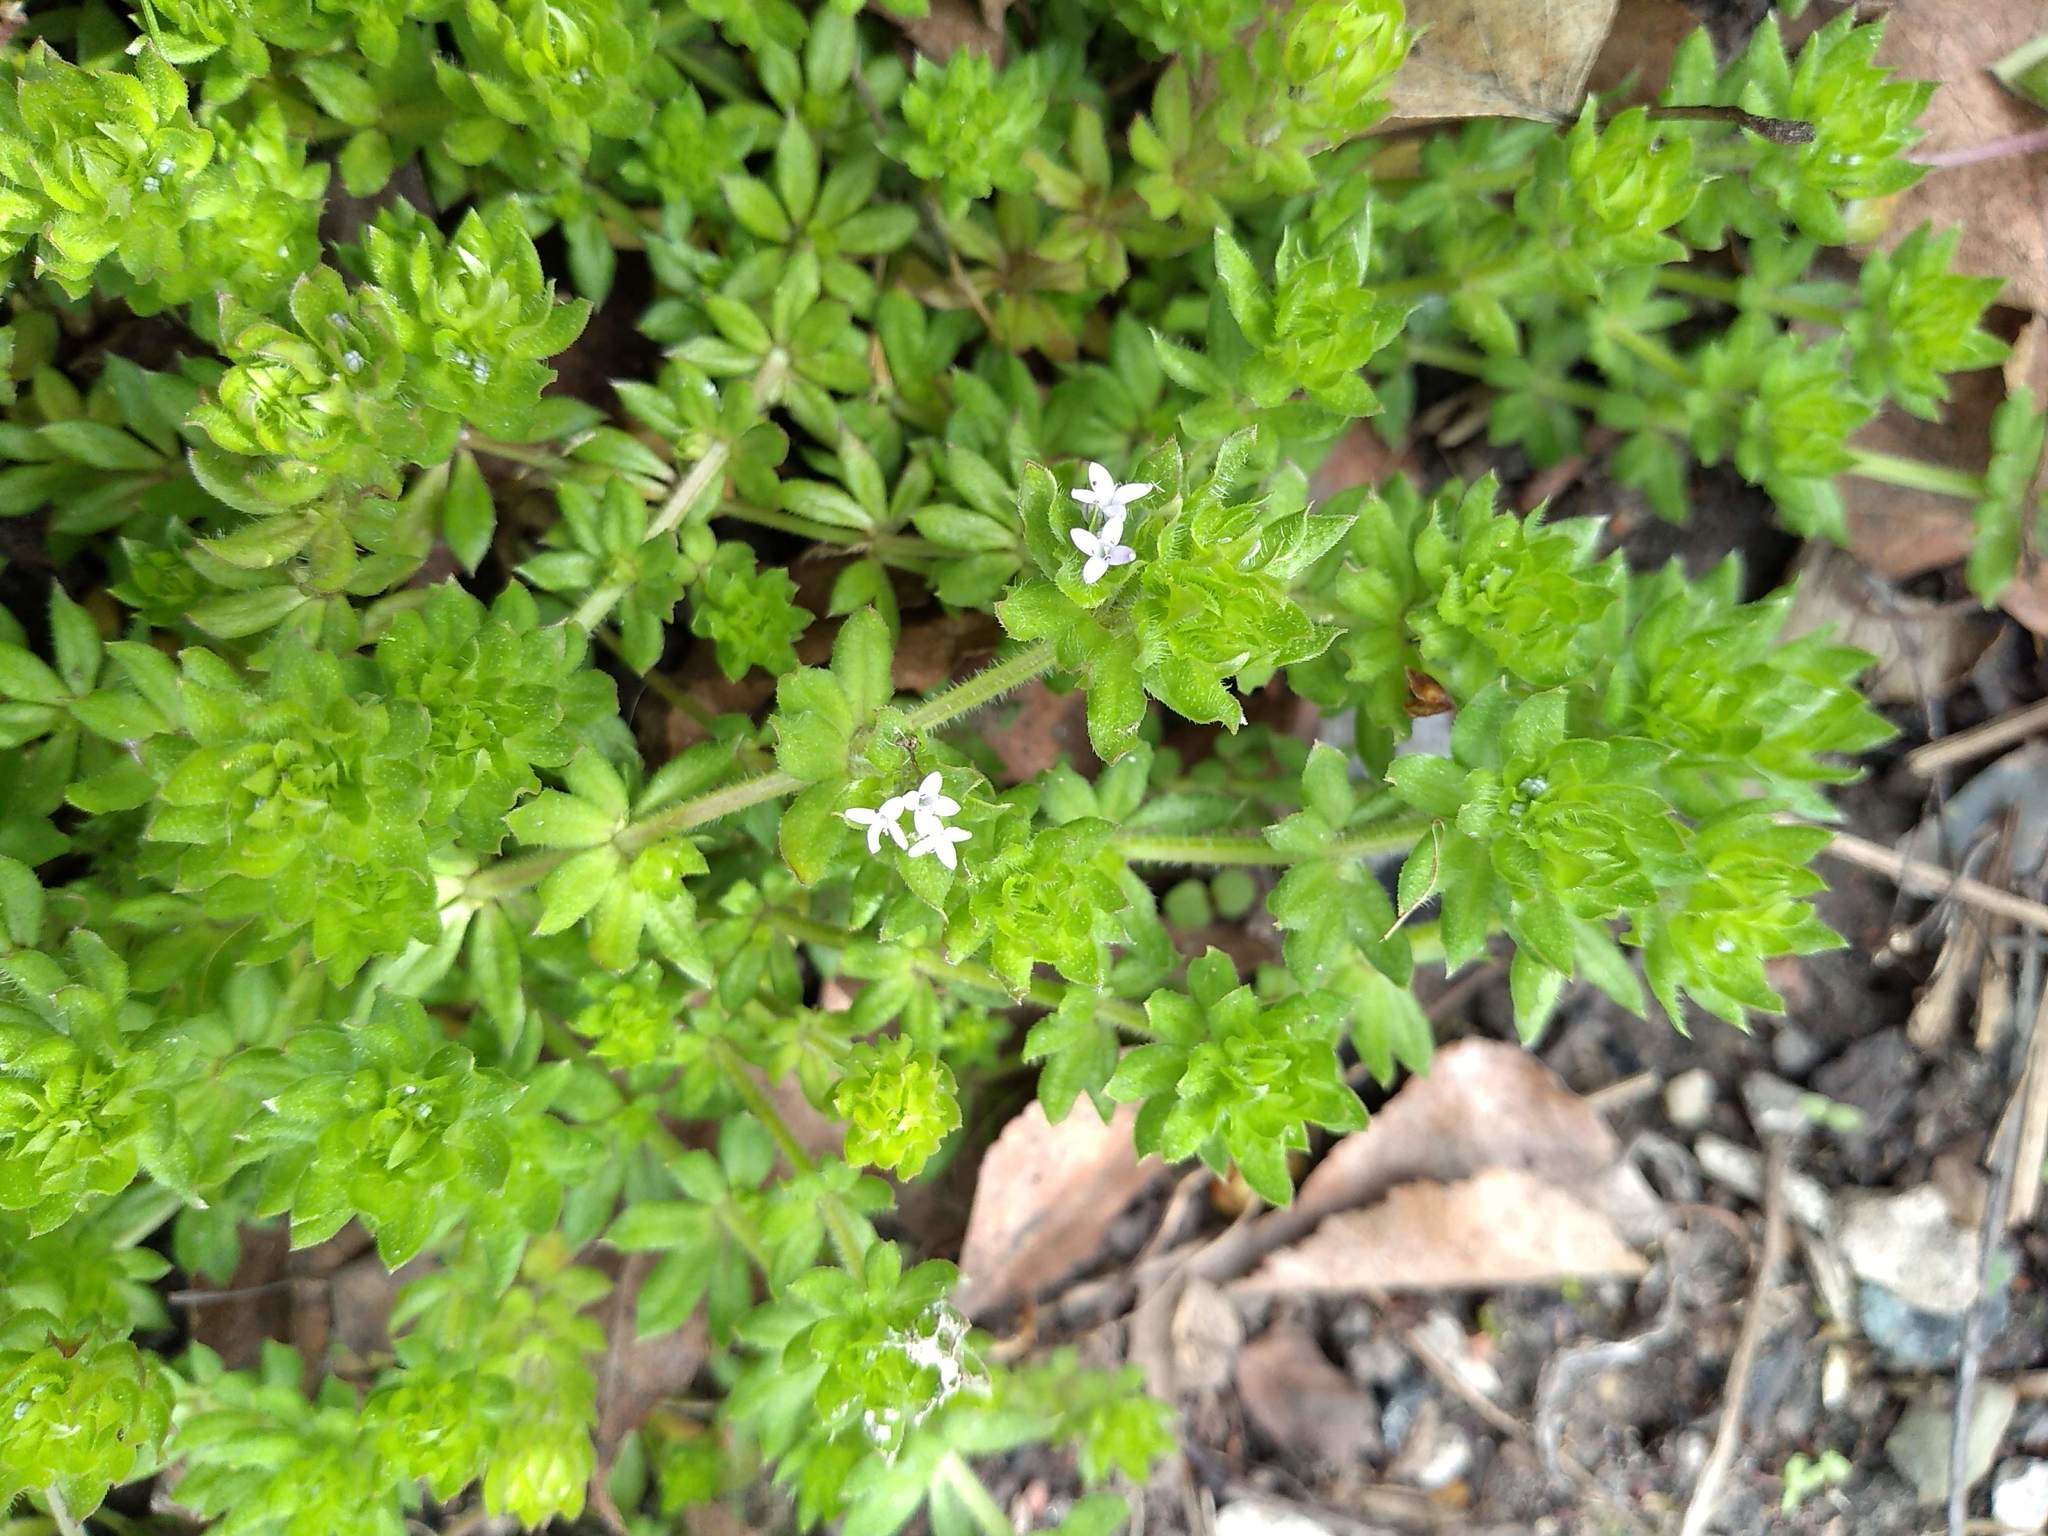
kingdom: Plantae
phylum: Tracheophyta
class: Magnoliopsida
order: Gentianales
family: Rubiaceae
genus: Sherardia
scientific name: Sherardia arvensis
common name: Field madder
